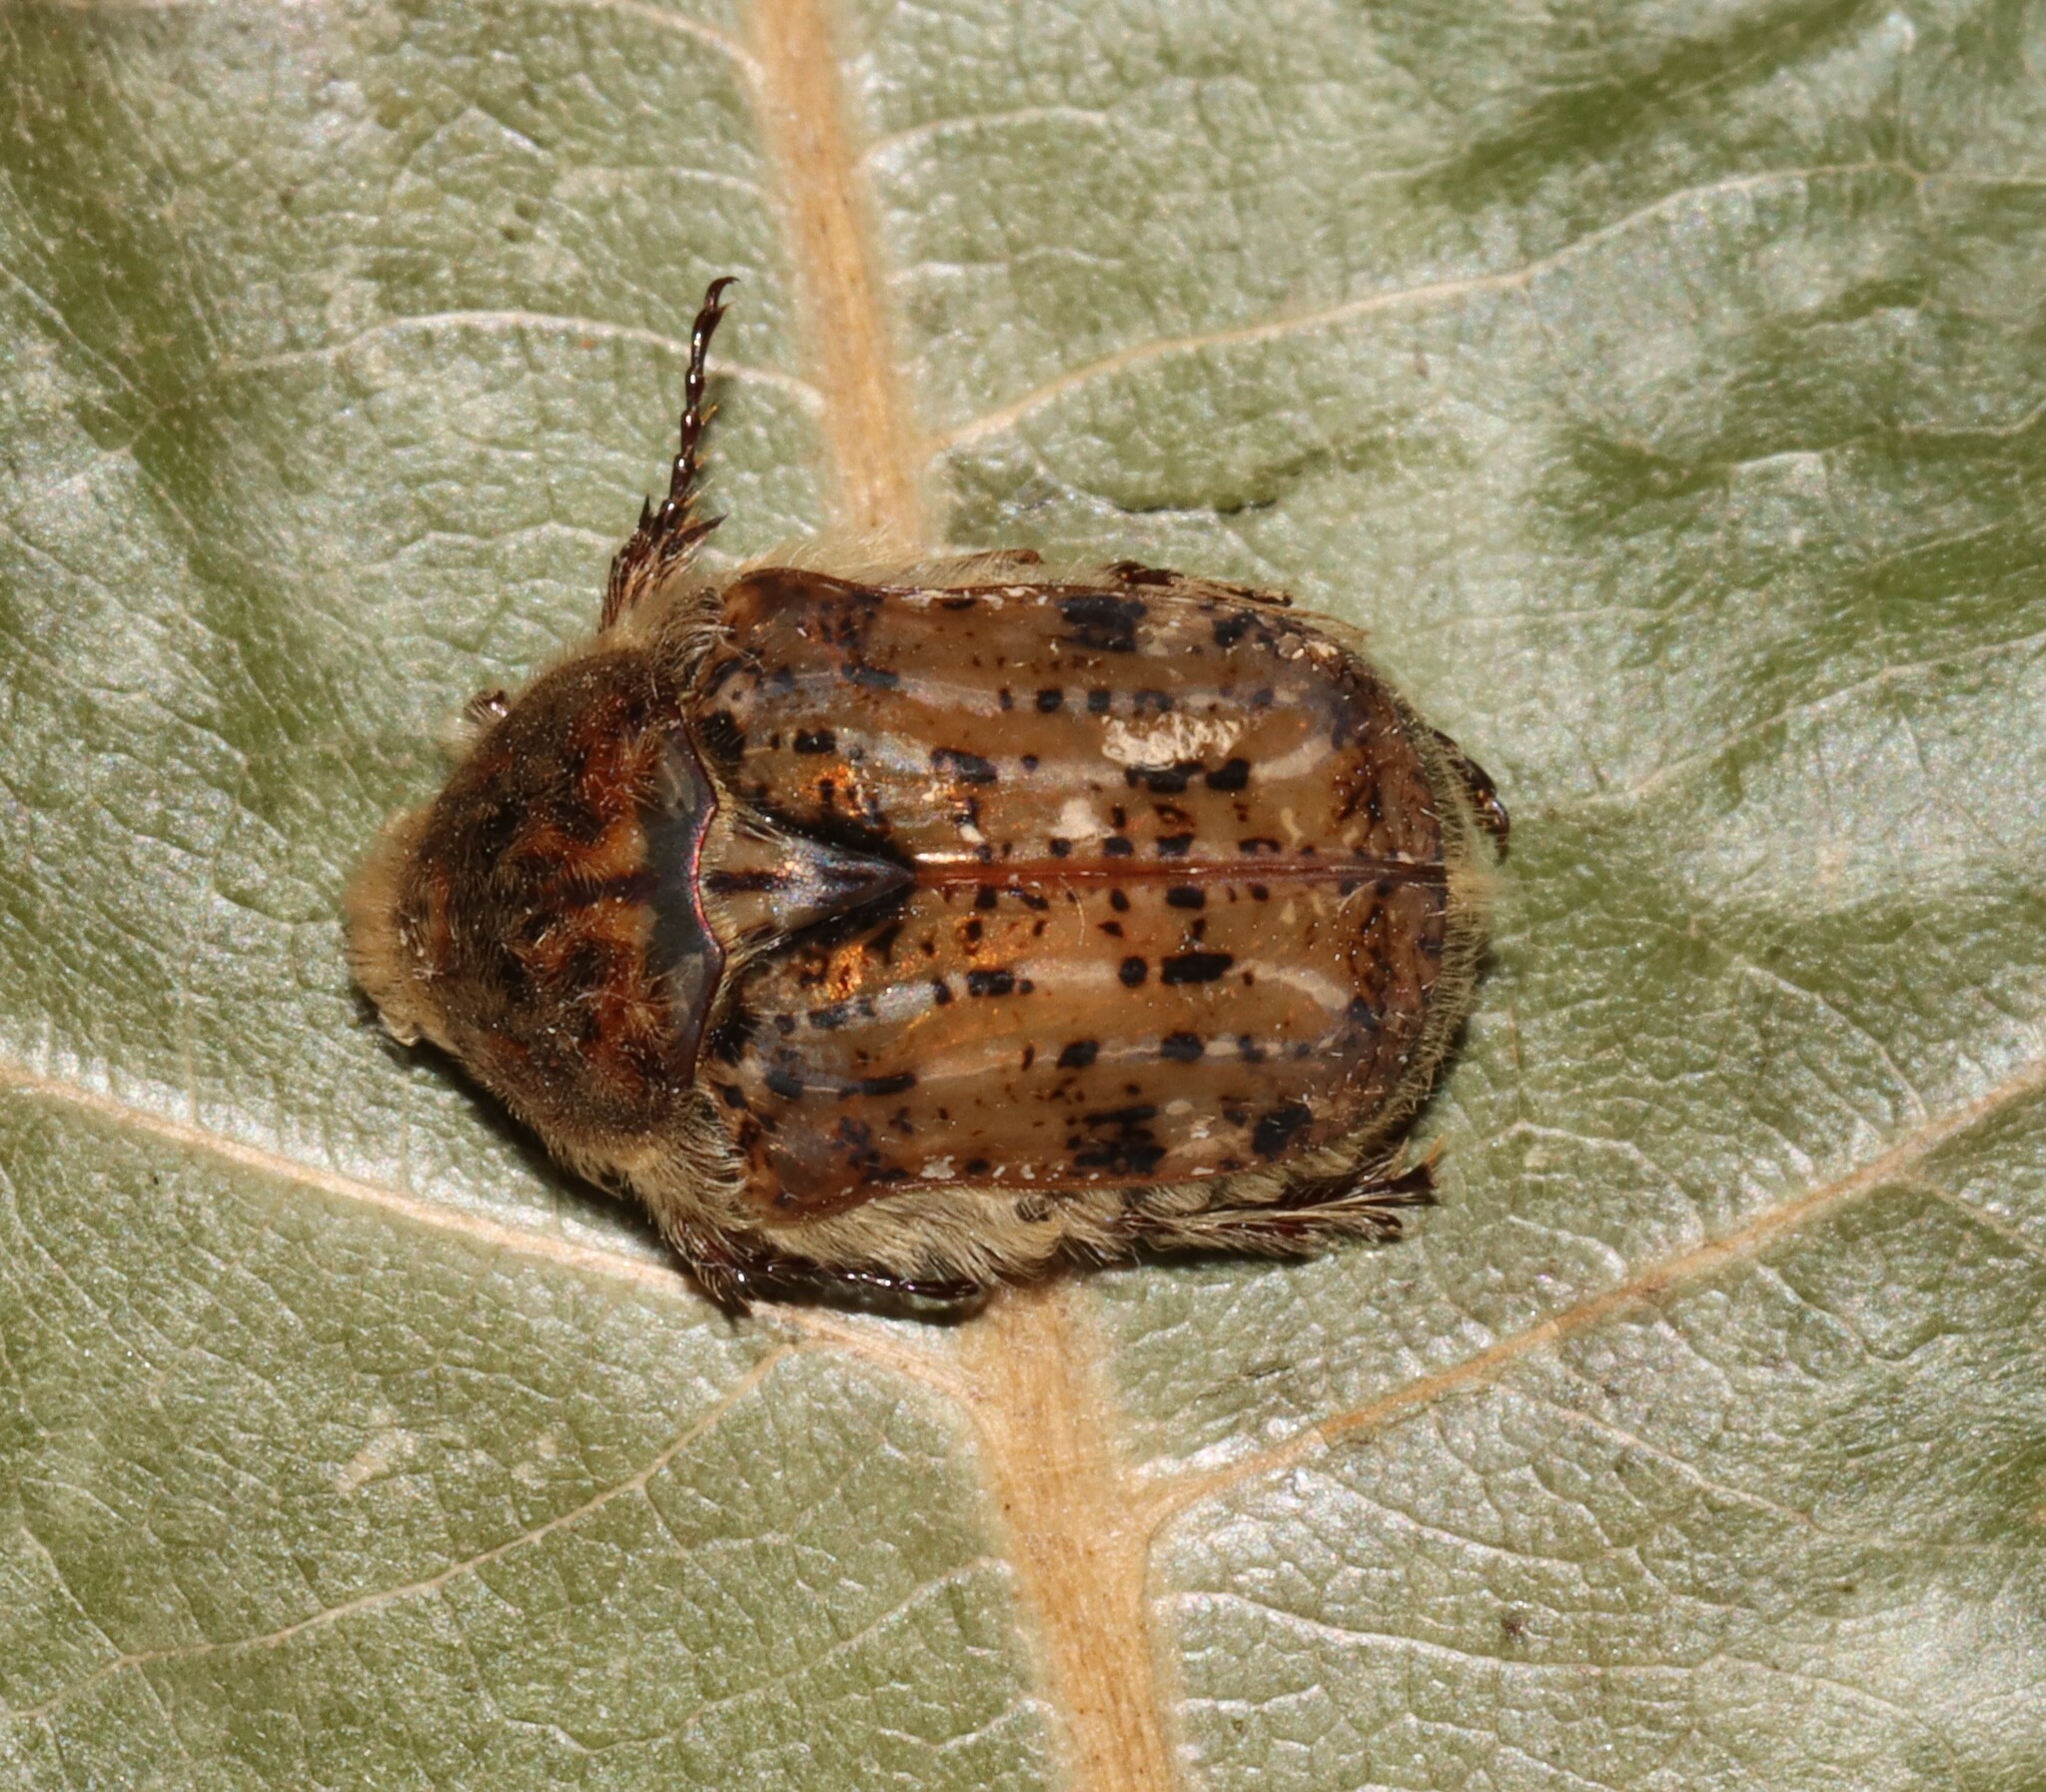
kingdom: Animalia
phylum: Arthropoda
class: Insecta
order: Coleoptera
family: Scarabaeidae
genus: Euphoria
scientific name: Euphoria inda
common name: Bumble flower beetle
